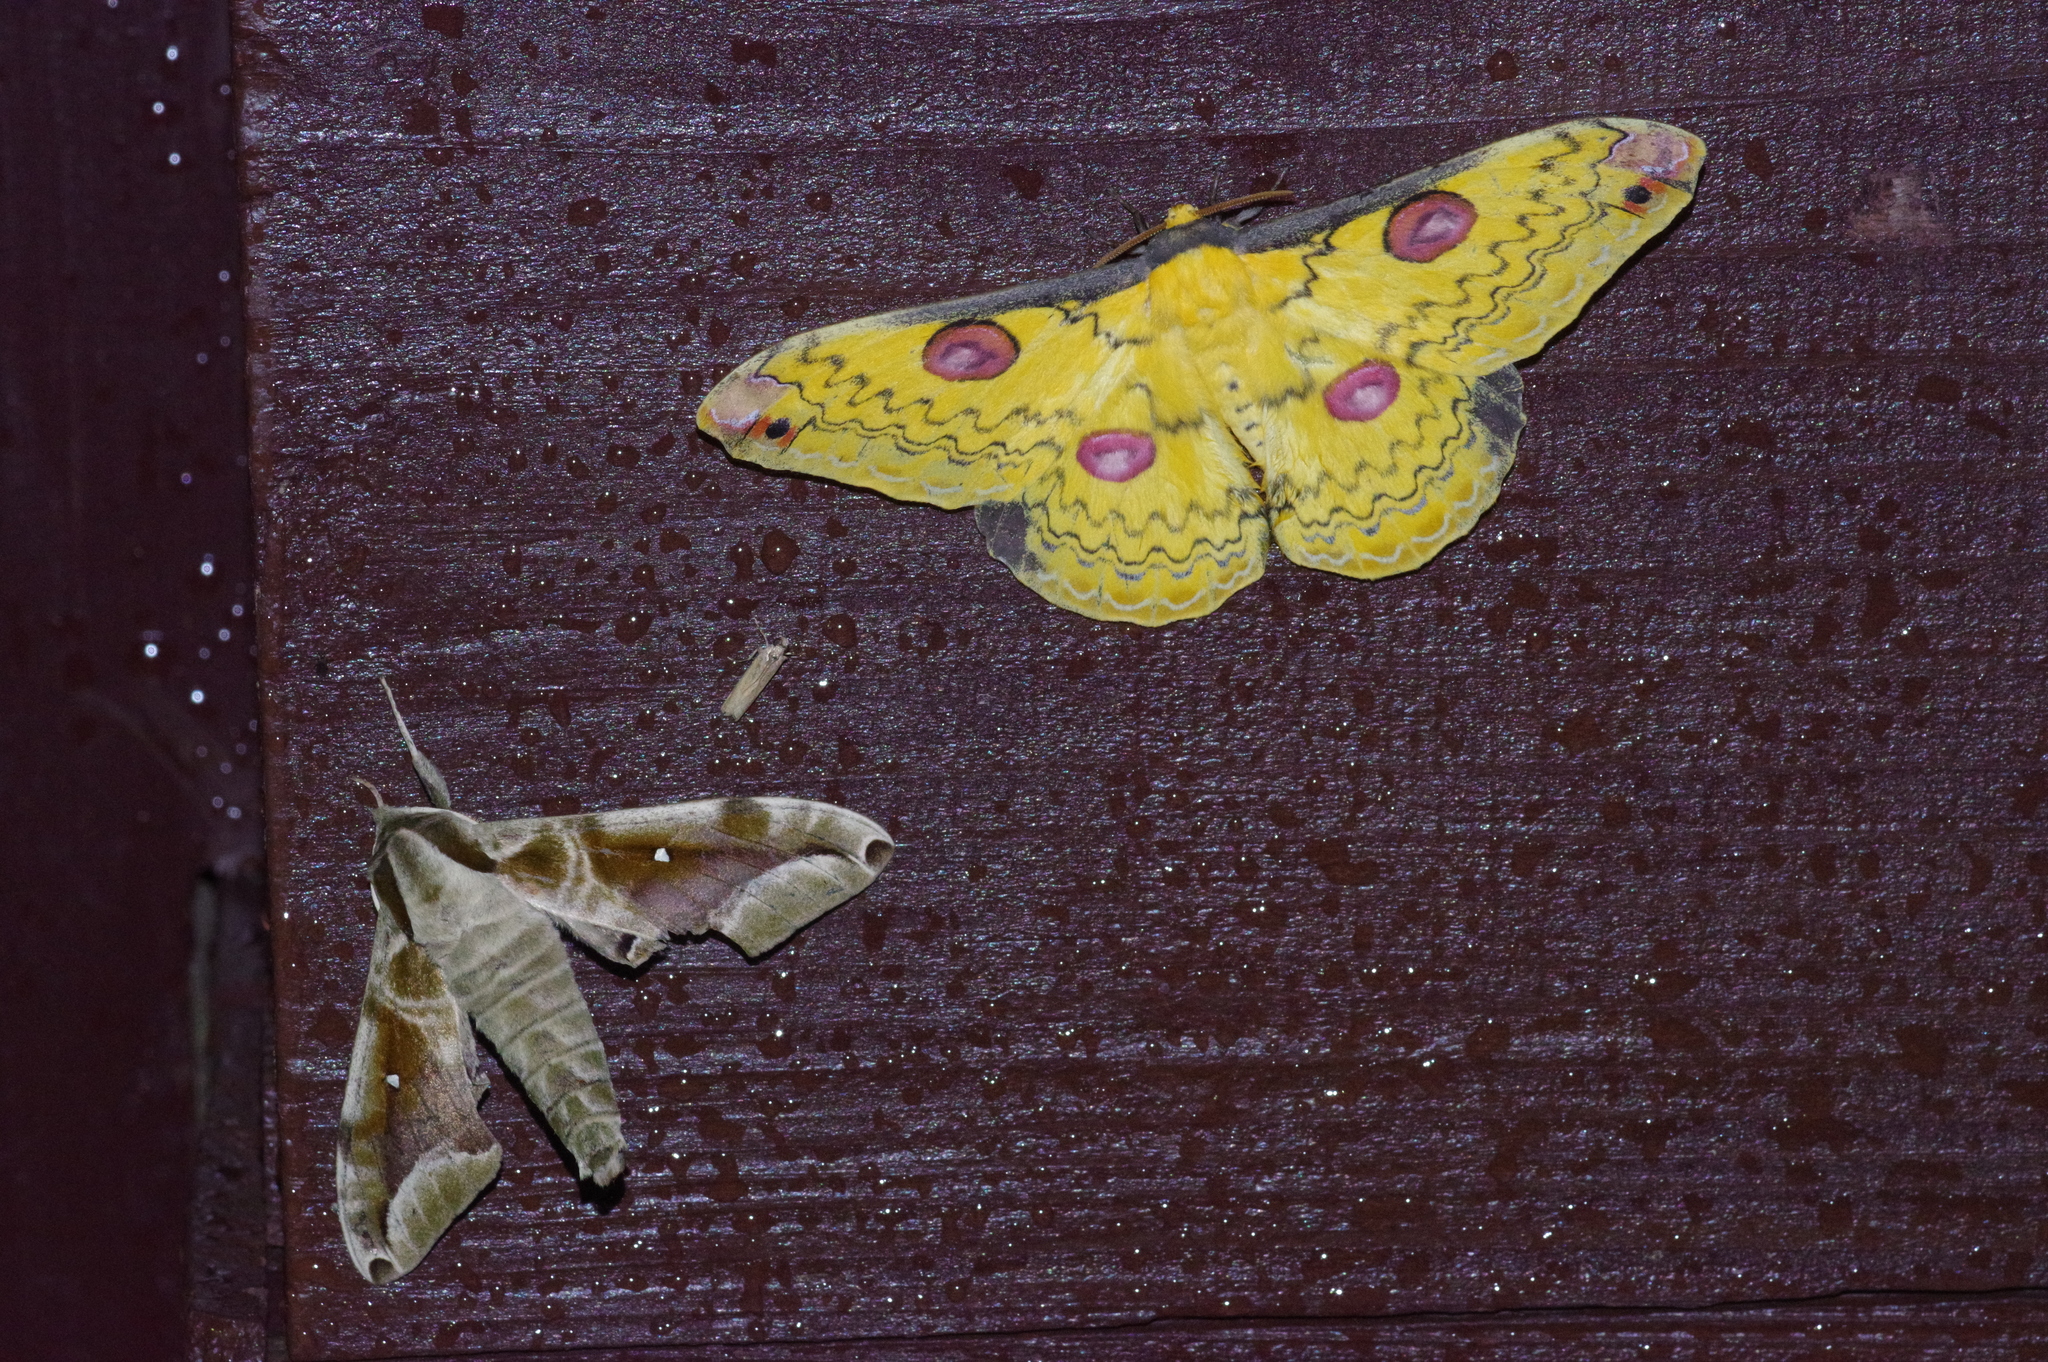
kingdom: Animalia
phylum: Arthropoda
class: Insecta
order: Lepidoptera
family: Sphingidae
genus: Parum
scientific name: Parum colligata
